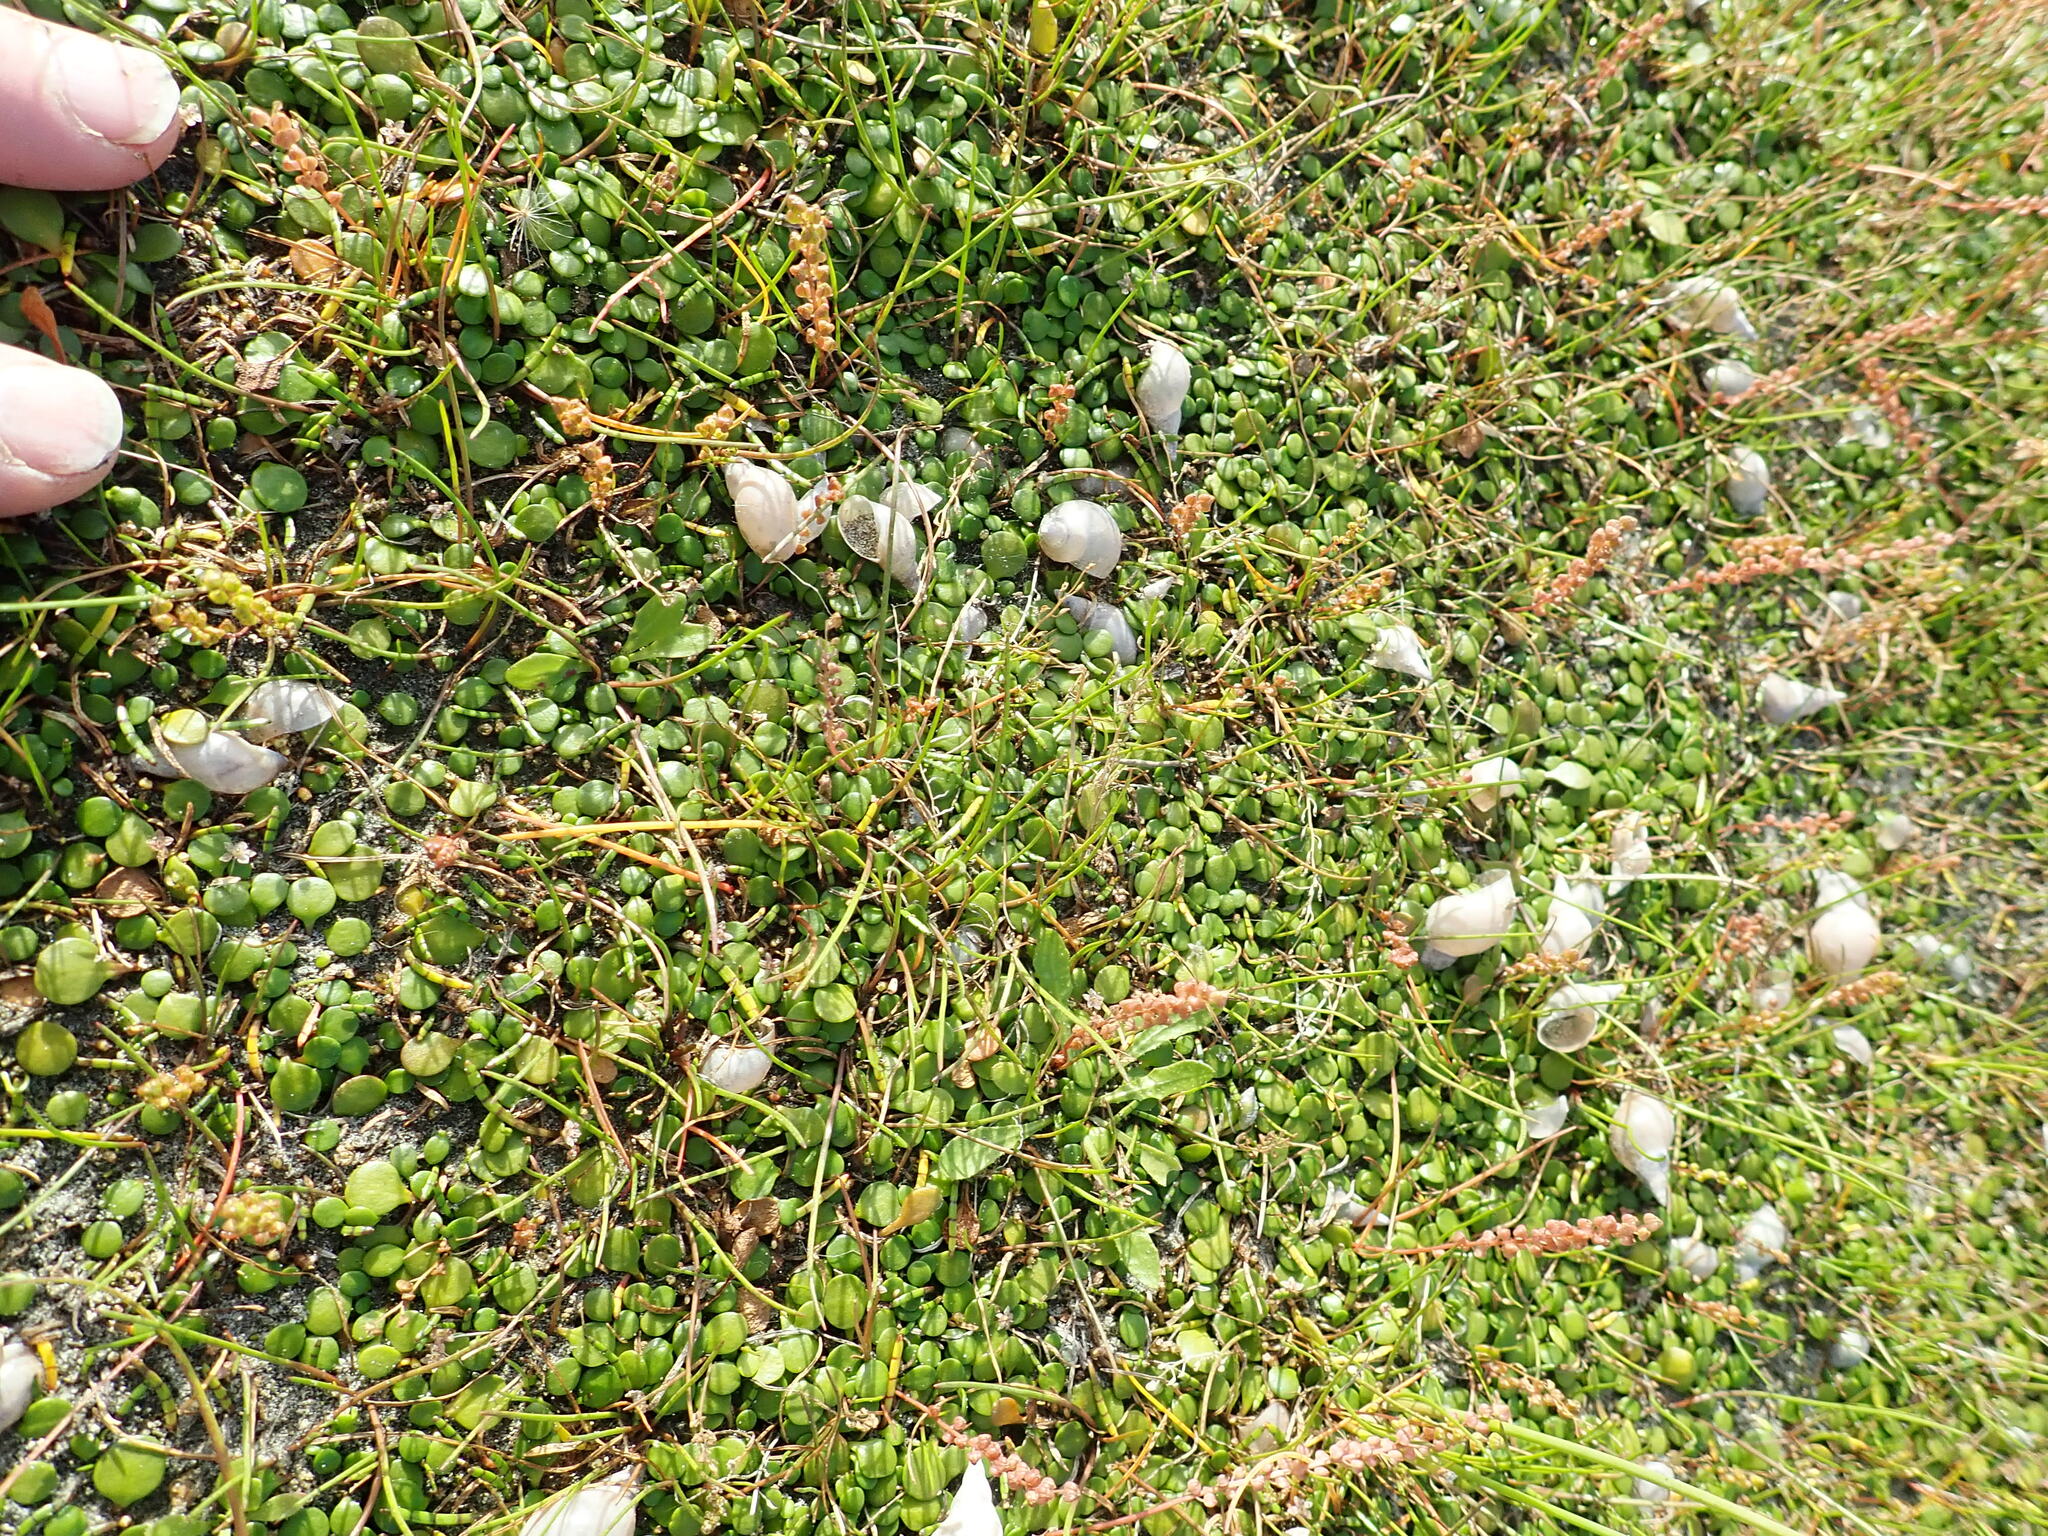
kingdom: Animalia
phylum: Mollusca
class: Gastropoda
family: Lymnaeidae
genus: Lymnaea
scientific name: Lymnaea stagnalis
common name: Great pond snail
